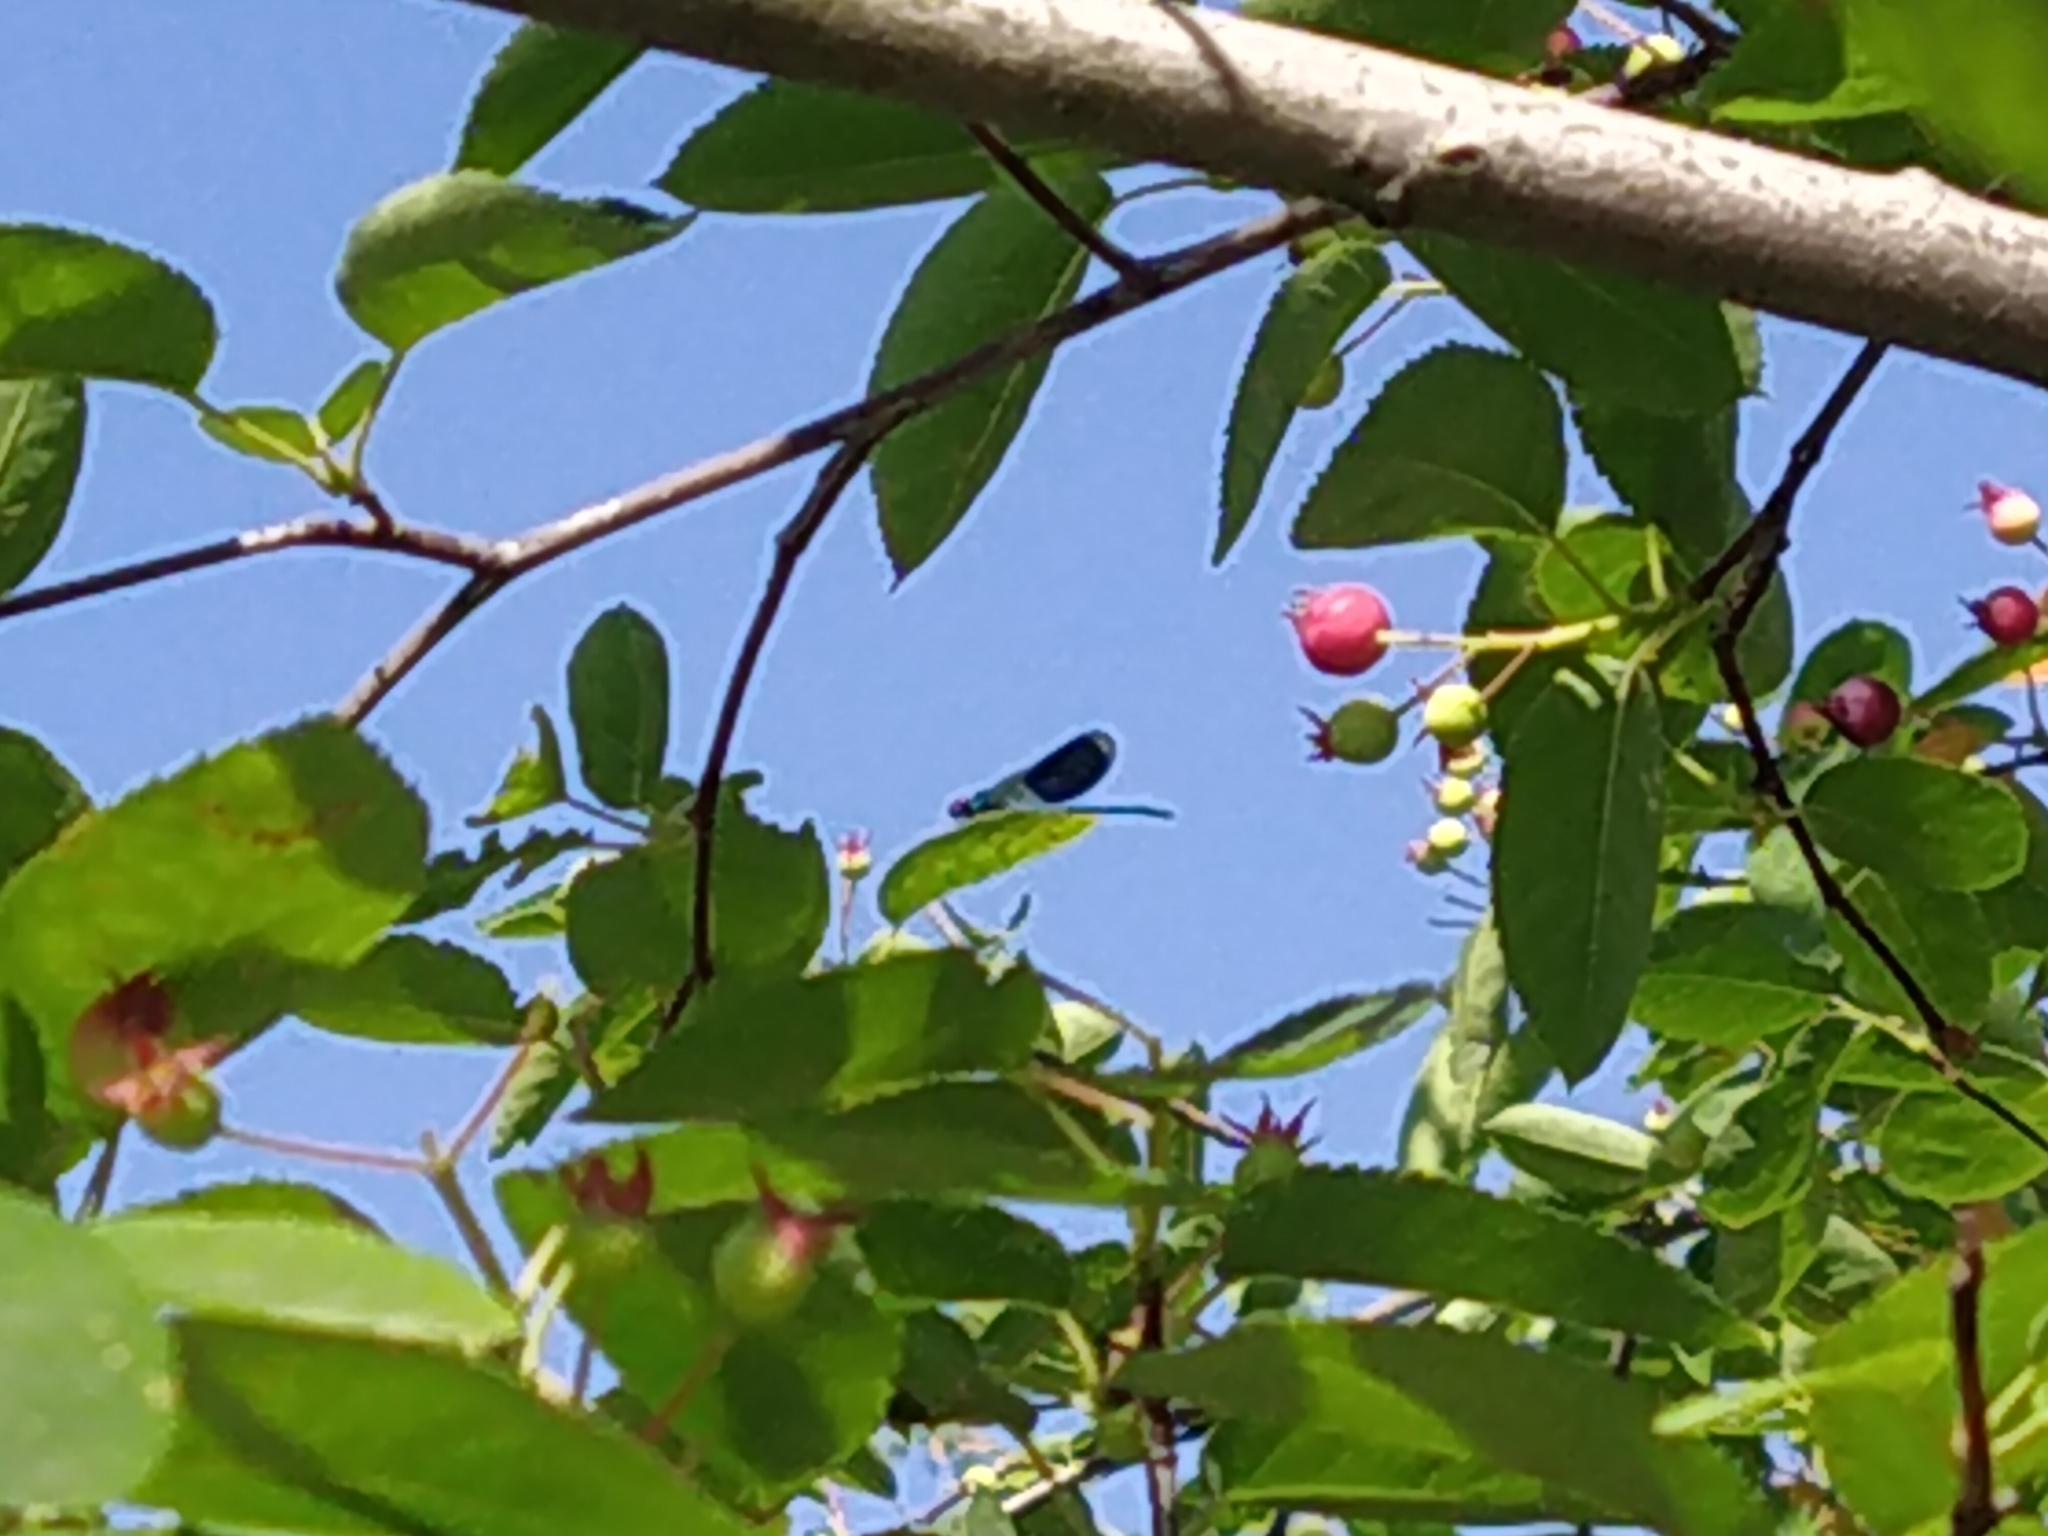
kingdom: Animalia
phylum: Arthropoda
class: Insecta
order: Odonata
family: Calopterygidae
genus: Calopteryx
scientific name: Calopteryx splendens
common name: Banded demoiselle
